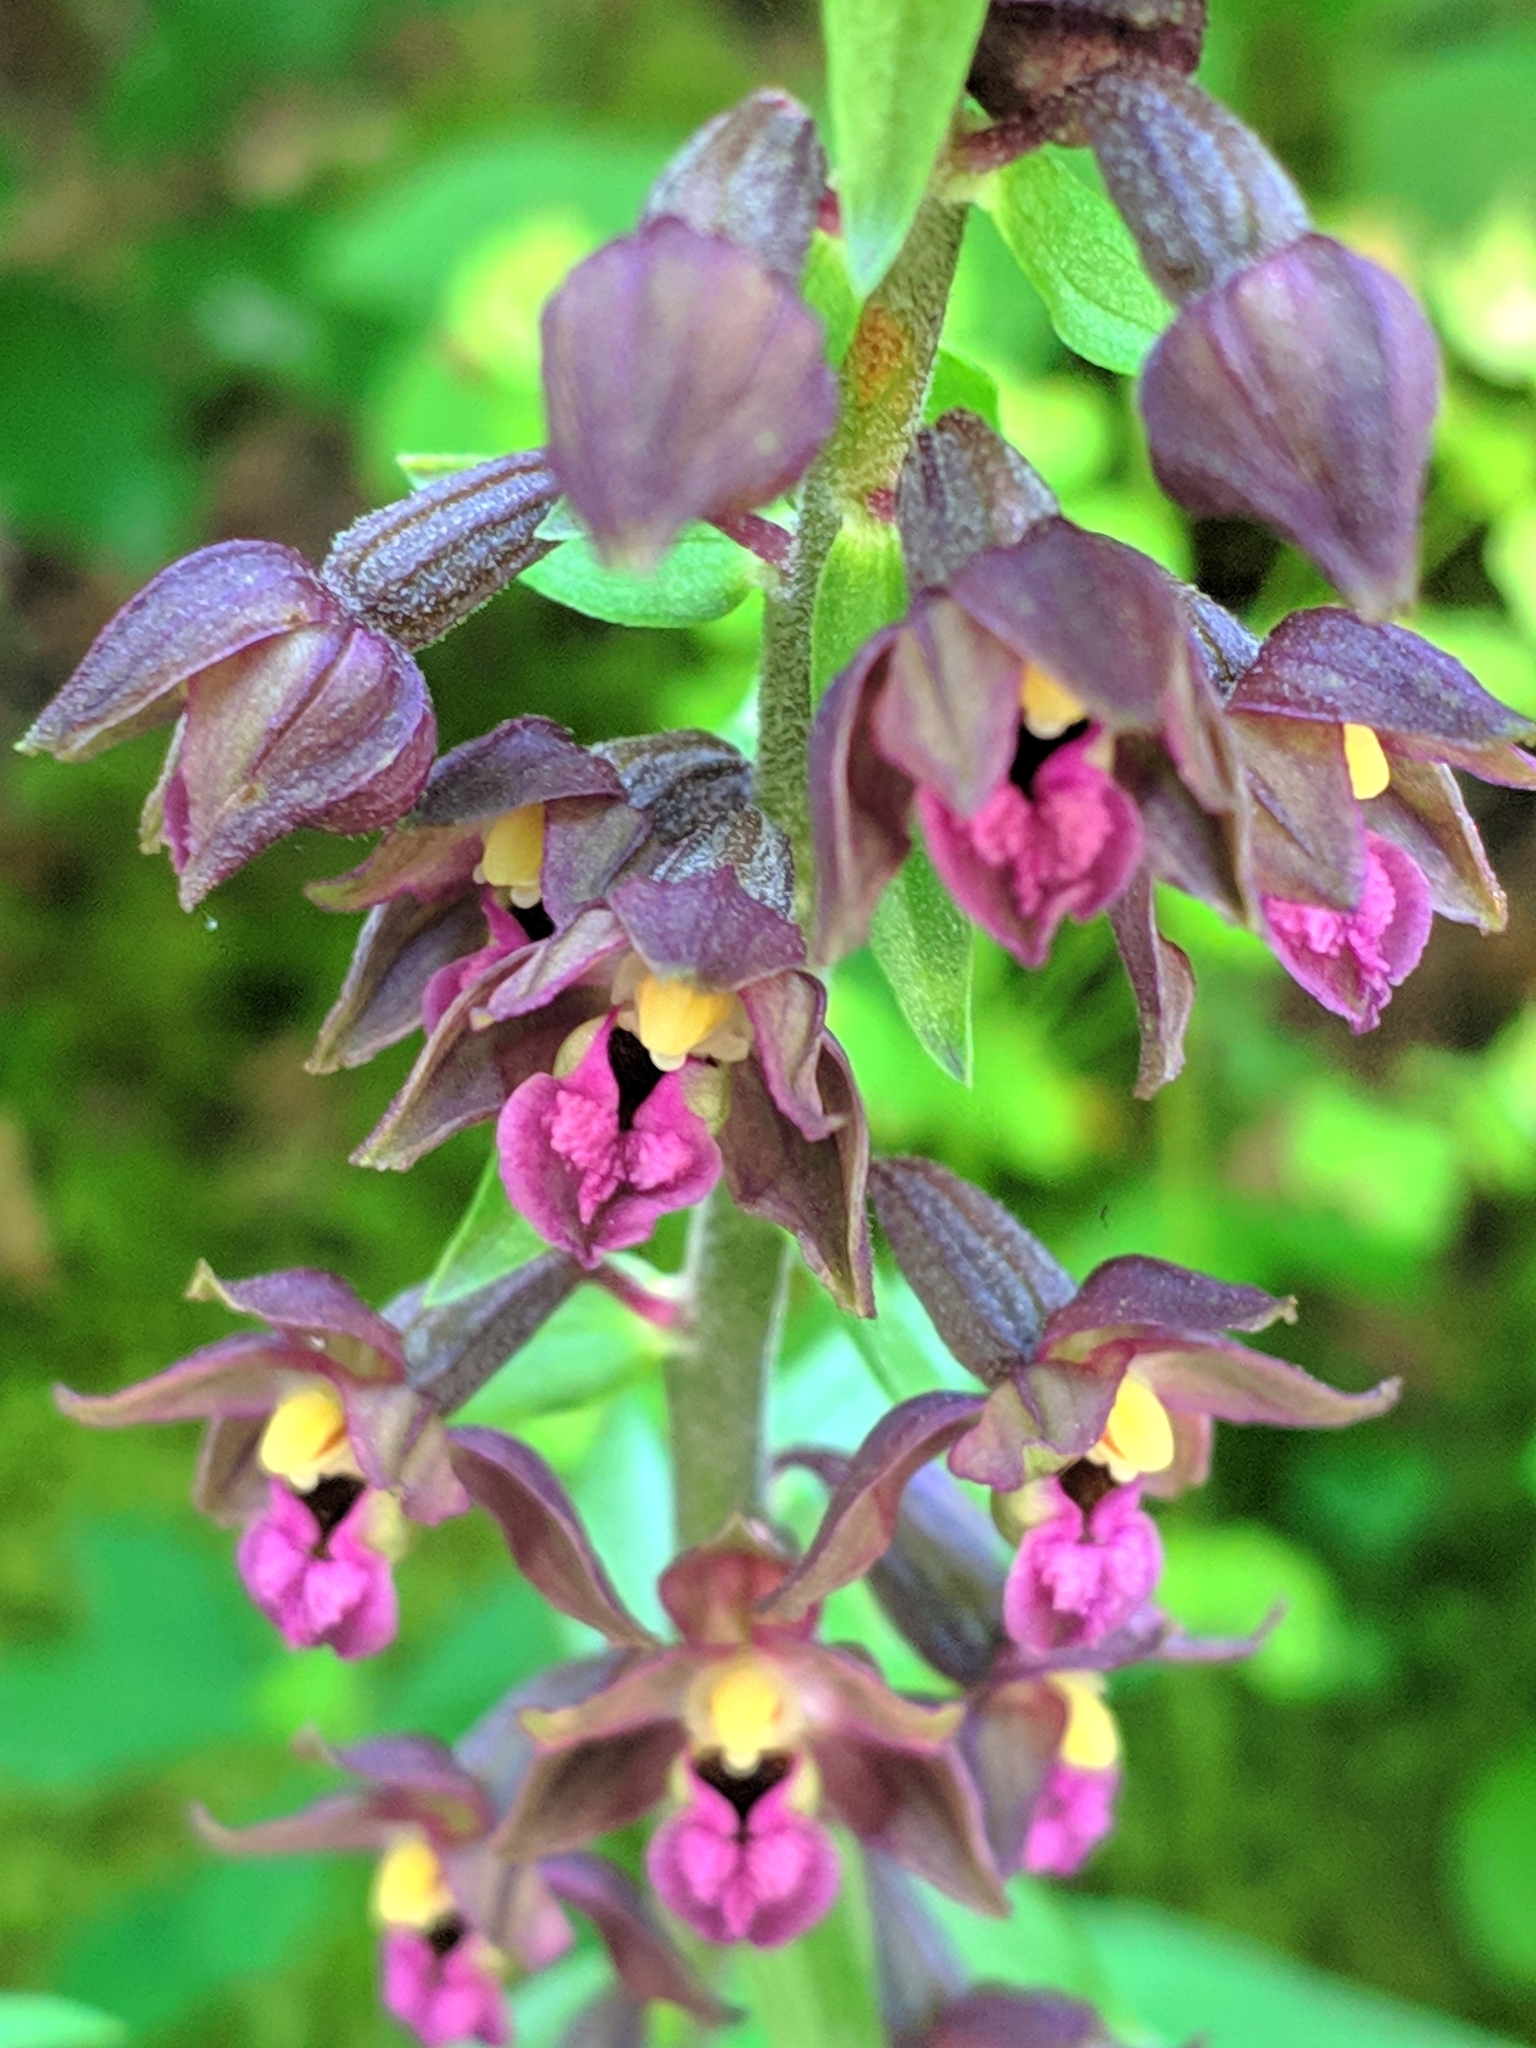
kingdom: Plantae
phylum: Tracheophyta
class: Liliopsida
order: Asparagales
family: Orchidaceae
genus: Epipactis
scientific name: Epipactis atrorubens
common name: Dark-red helleborine
